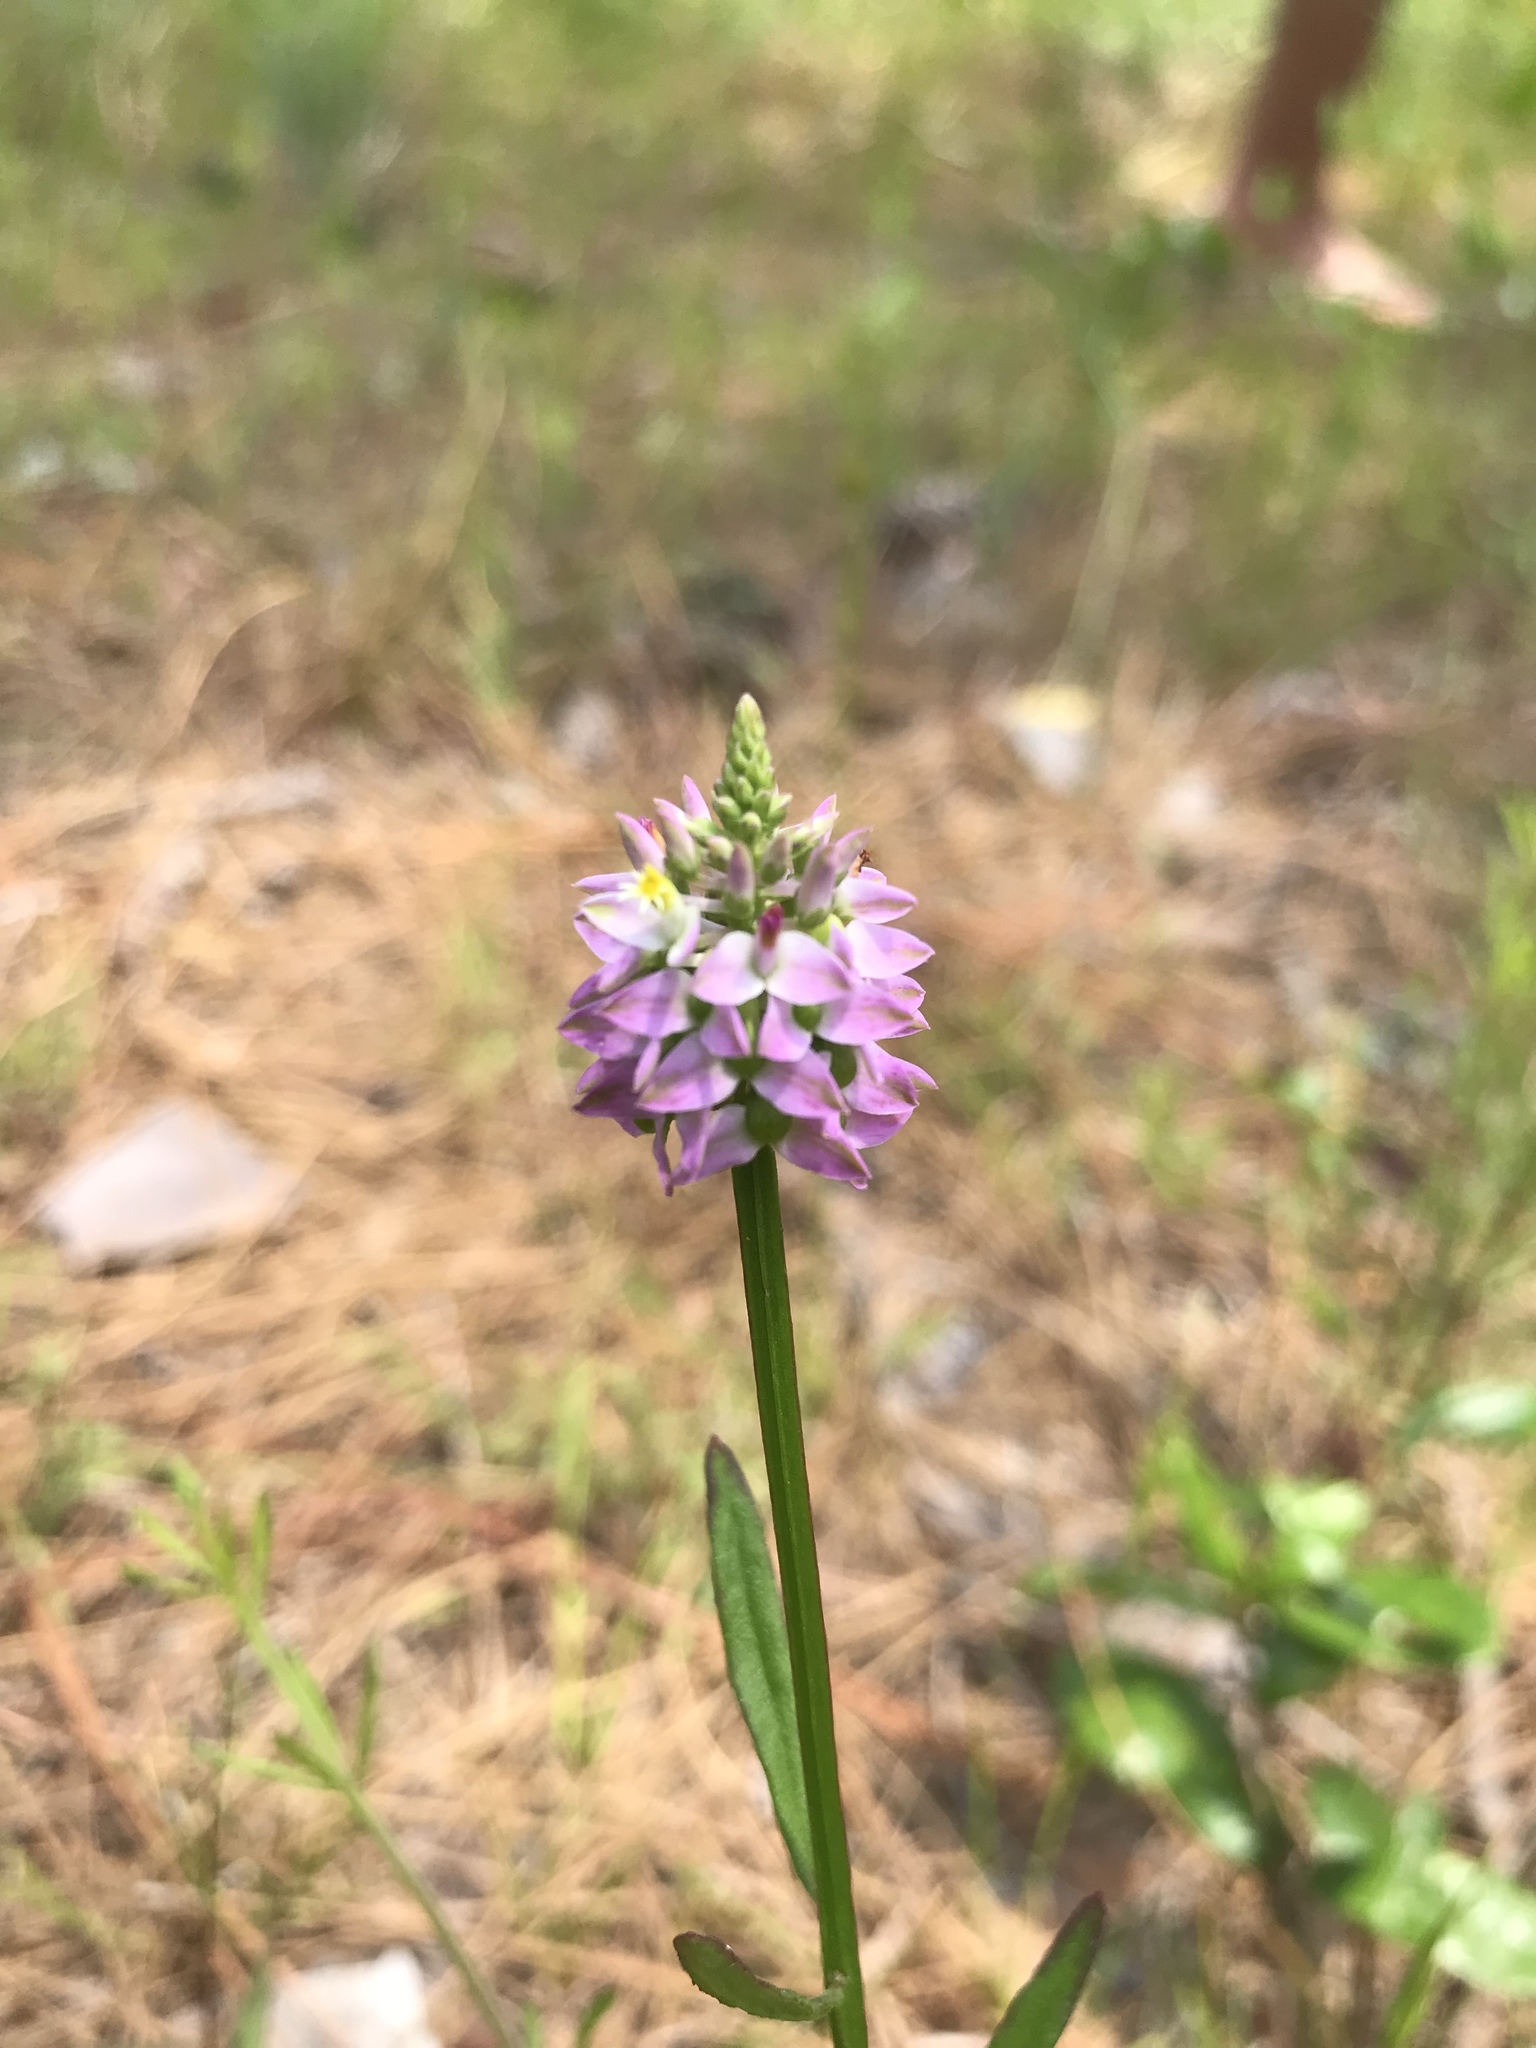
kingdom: Plantae
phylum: Tracheophyta
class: Magnoliopsida
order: Fabales
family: Polygalaceae
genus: Polygala
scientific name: Polygala brevifolia
